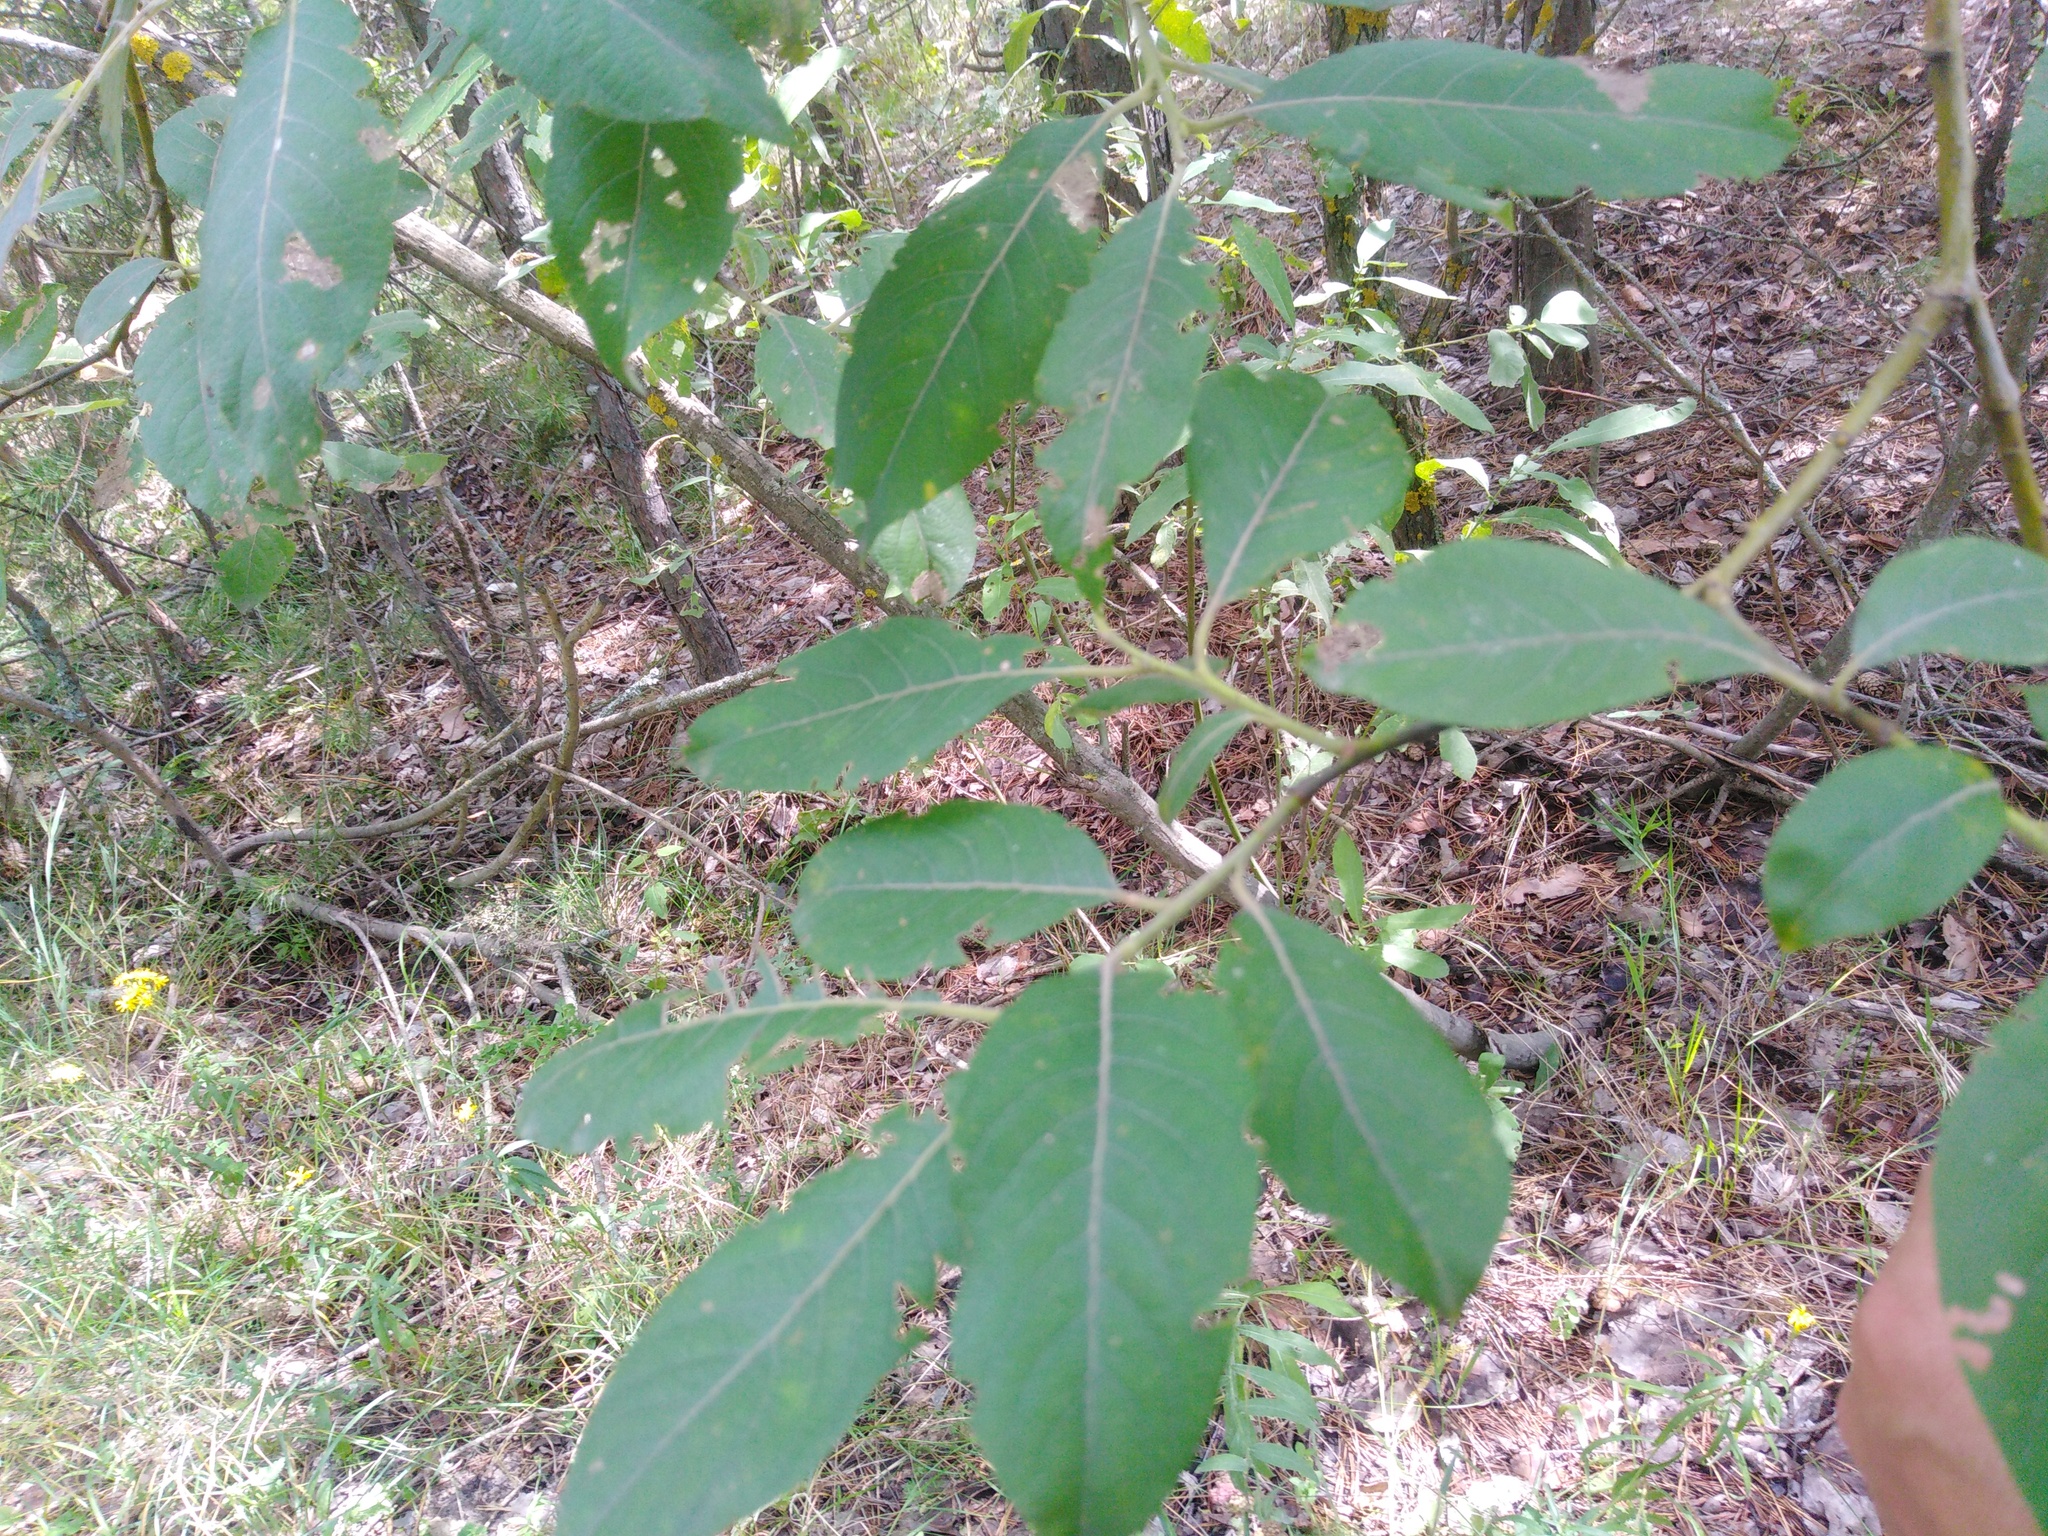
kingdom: Plantae
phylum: Tracheophyta
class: Magnoliopsida
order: Malpighiales
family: Salicaceae
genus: Salix
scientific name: Salix caprea
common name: Goat willow
